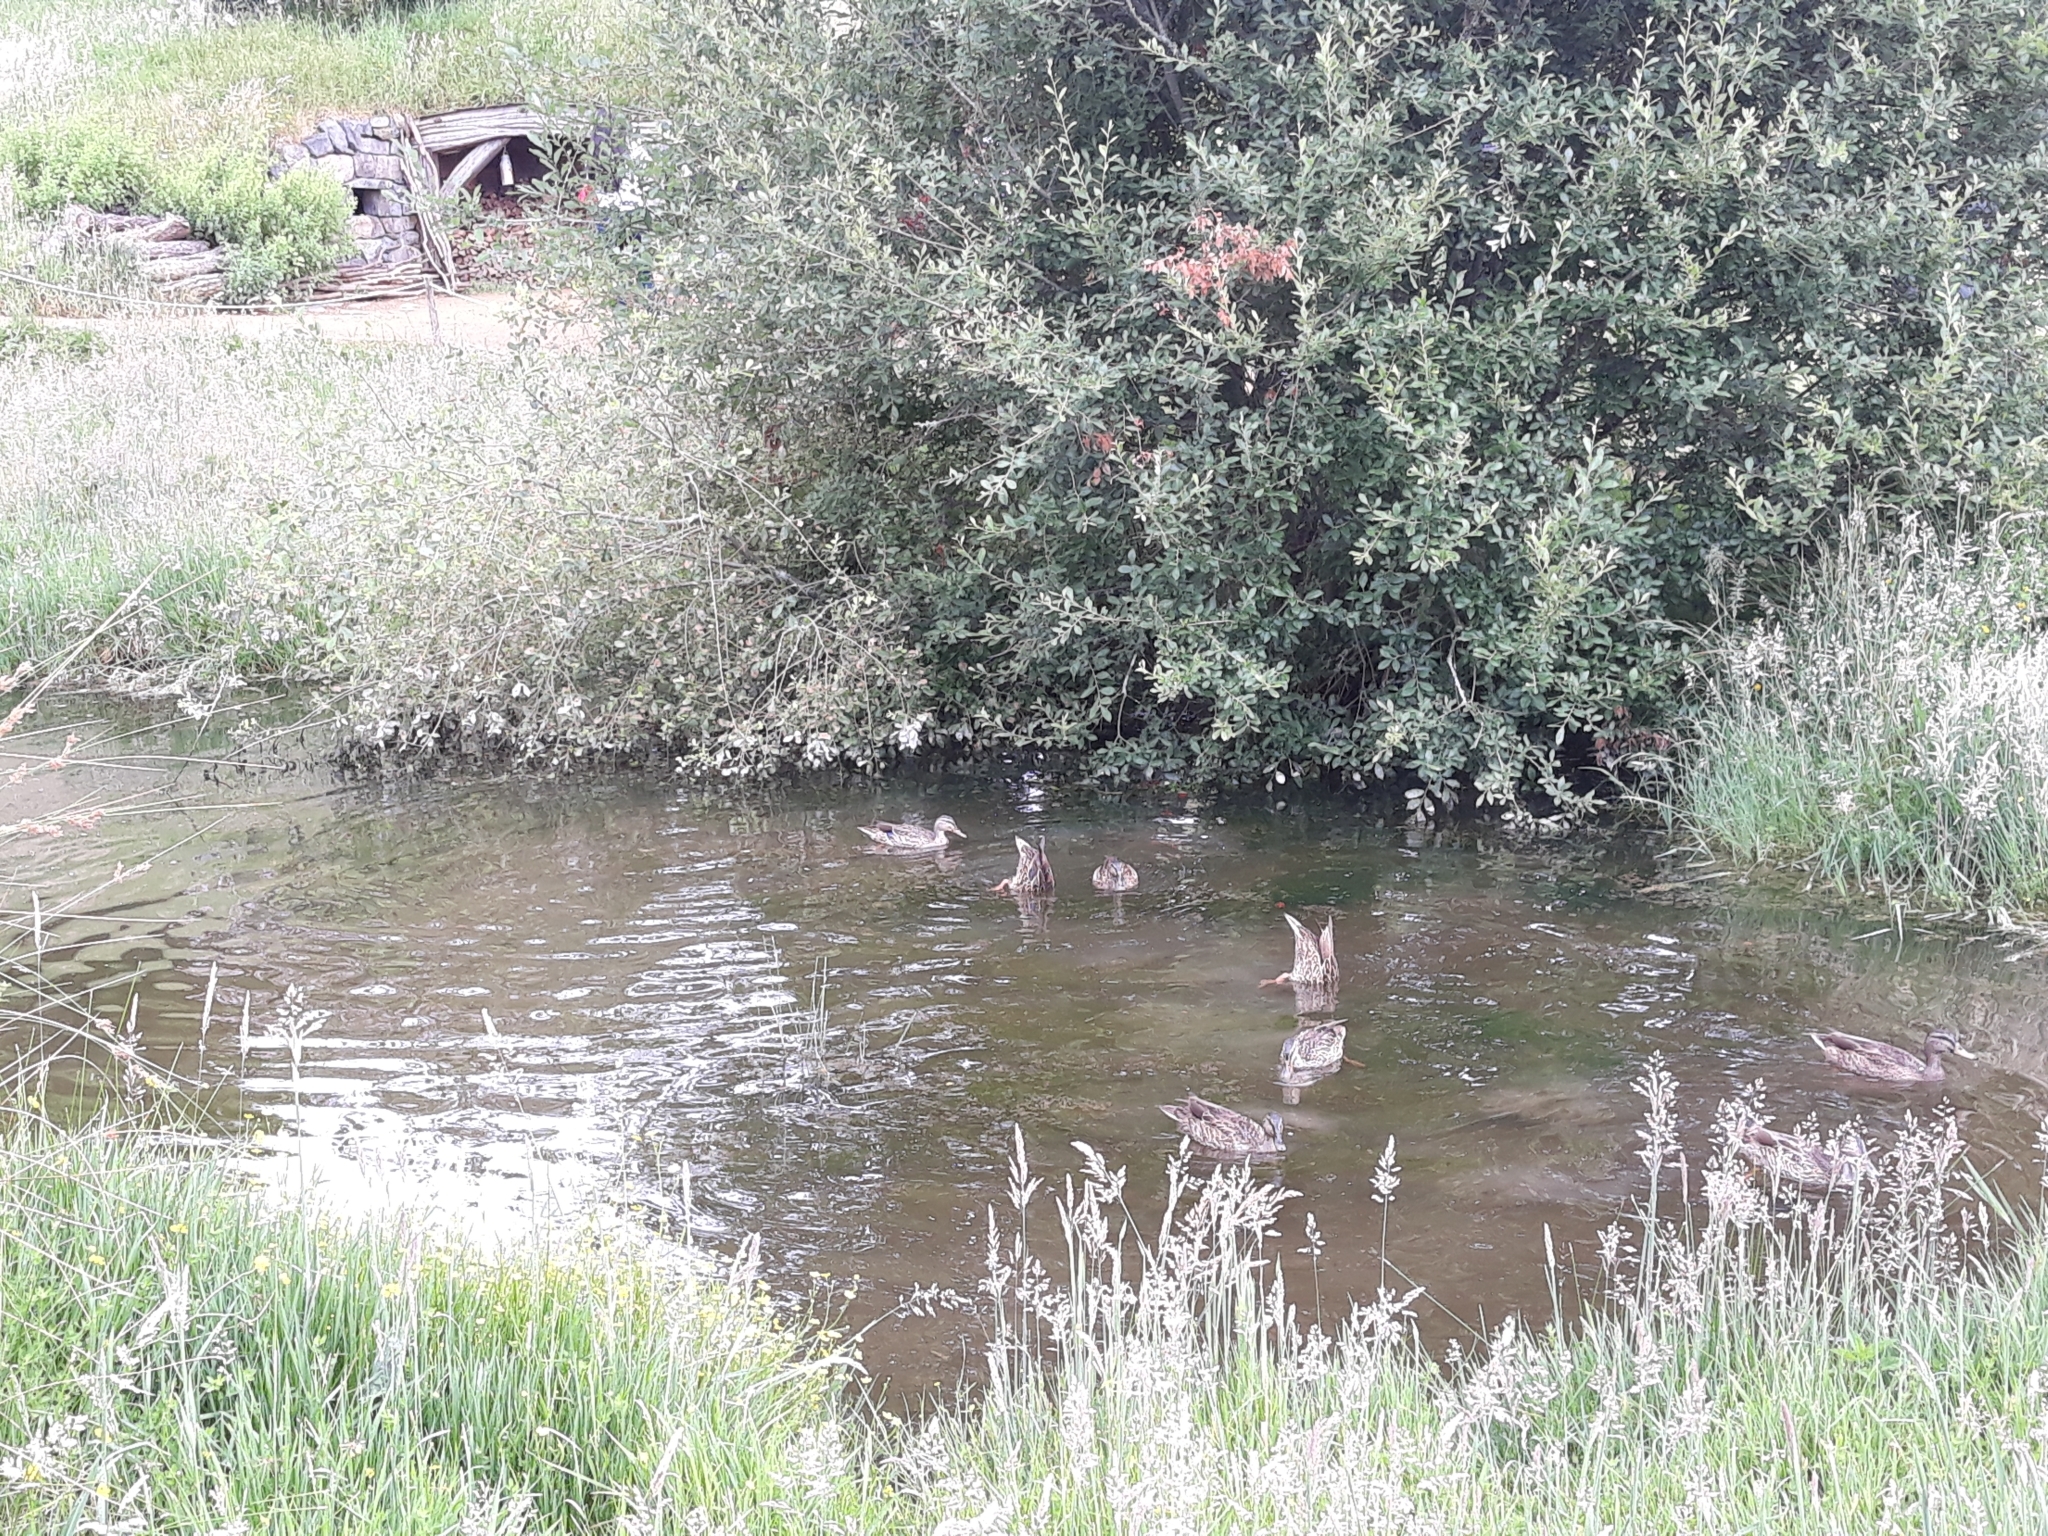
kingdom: Animalia
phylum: Chordata
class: Aves
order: Anseriformes
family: Anatidae
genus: Anas
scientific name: Anas platyrhynchos
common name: Mallard
